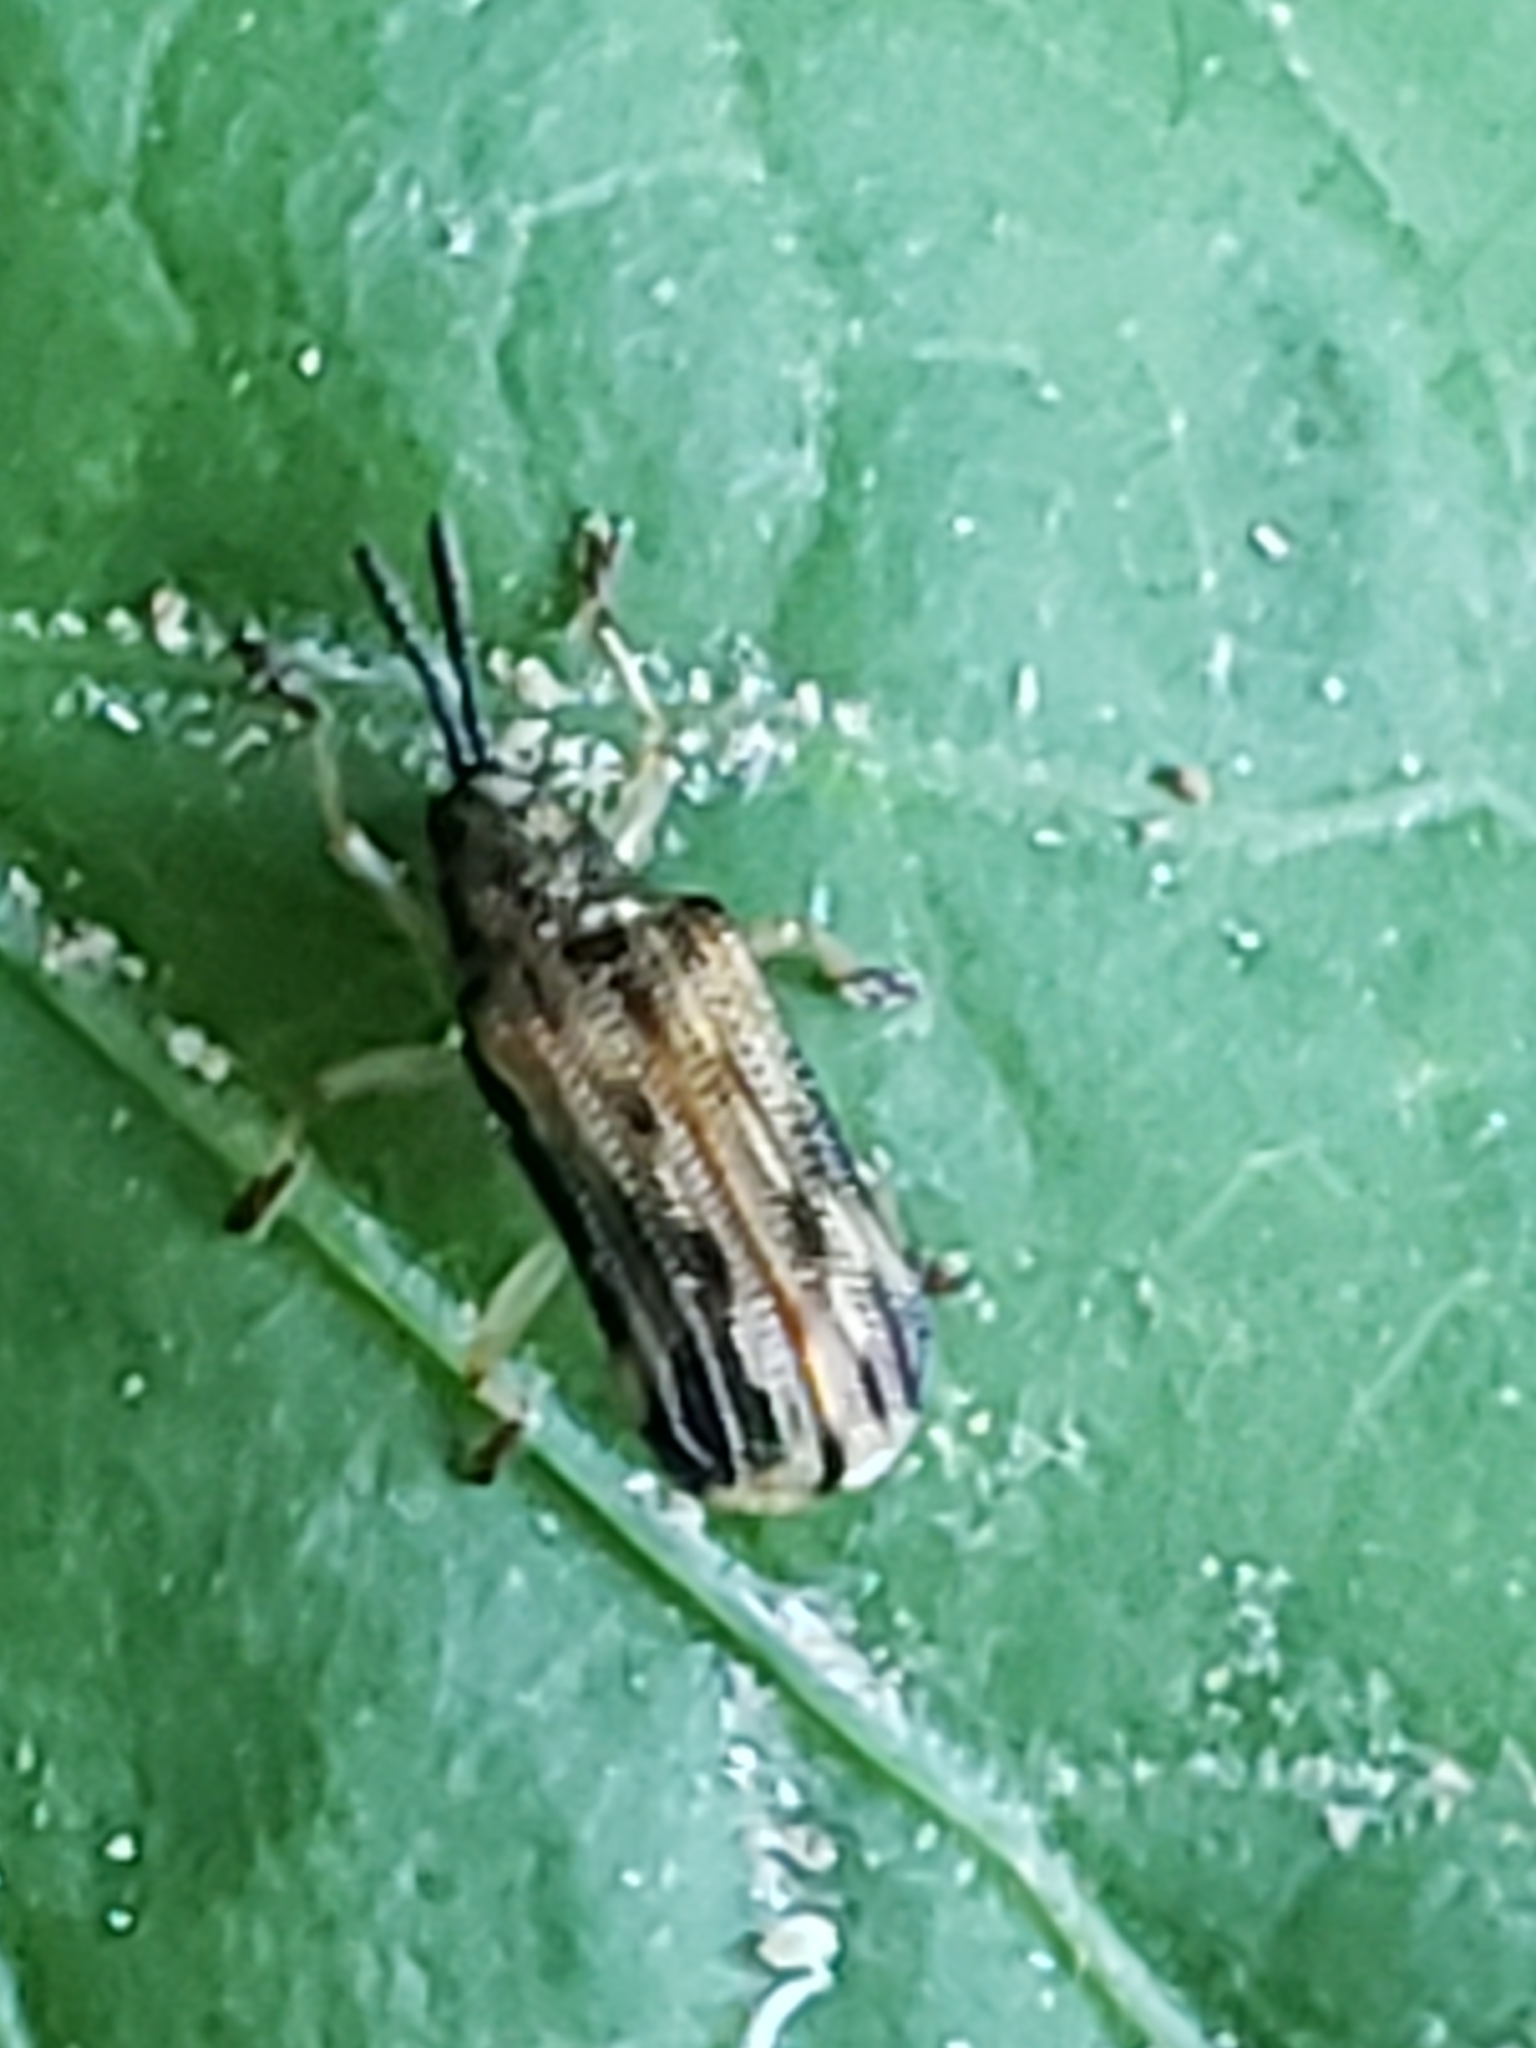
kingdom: Animalia
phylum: Arthropoda
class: Insecta
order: Coleoptera
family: Chrysomelidae
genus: Sumitrosis
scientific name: Sumitrosis inaequalis
